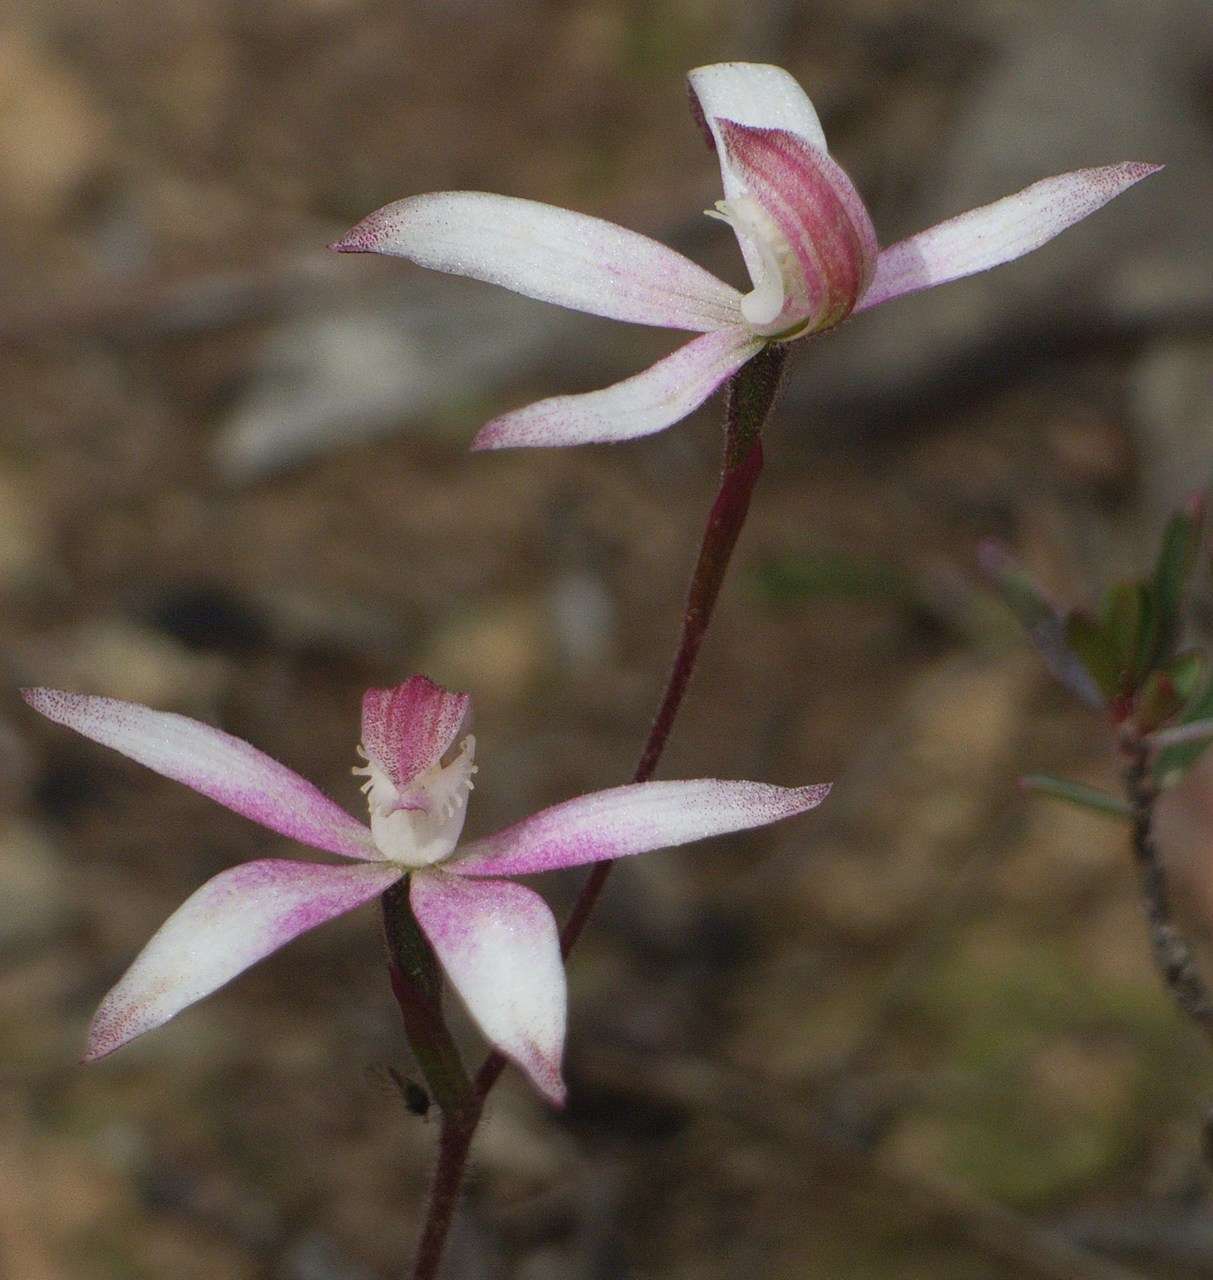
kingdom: Plantae
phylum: Tracheophyta
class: Liliopsida
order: Asparagales
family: Orchidaceae
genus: Caladenia
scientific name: Caladenia dimorpha
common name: Spicy caps
